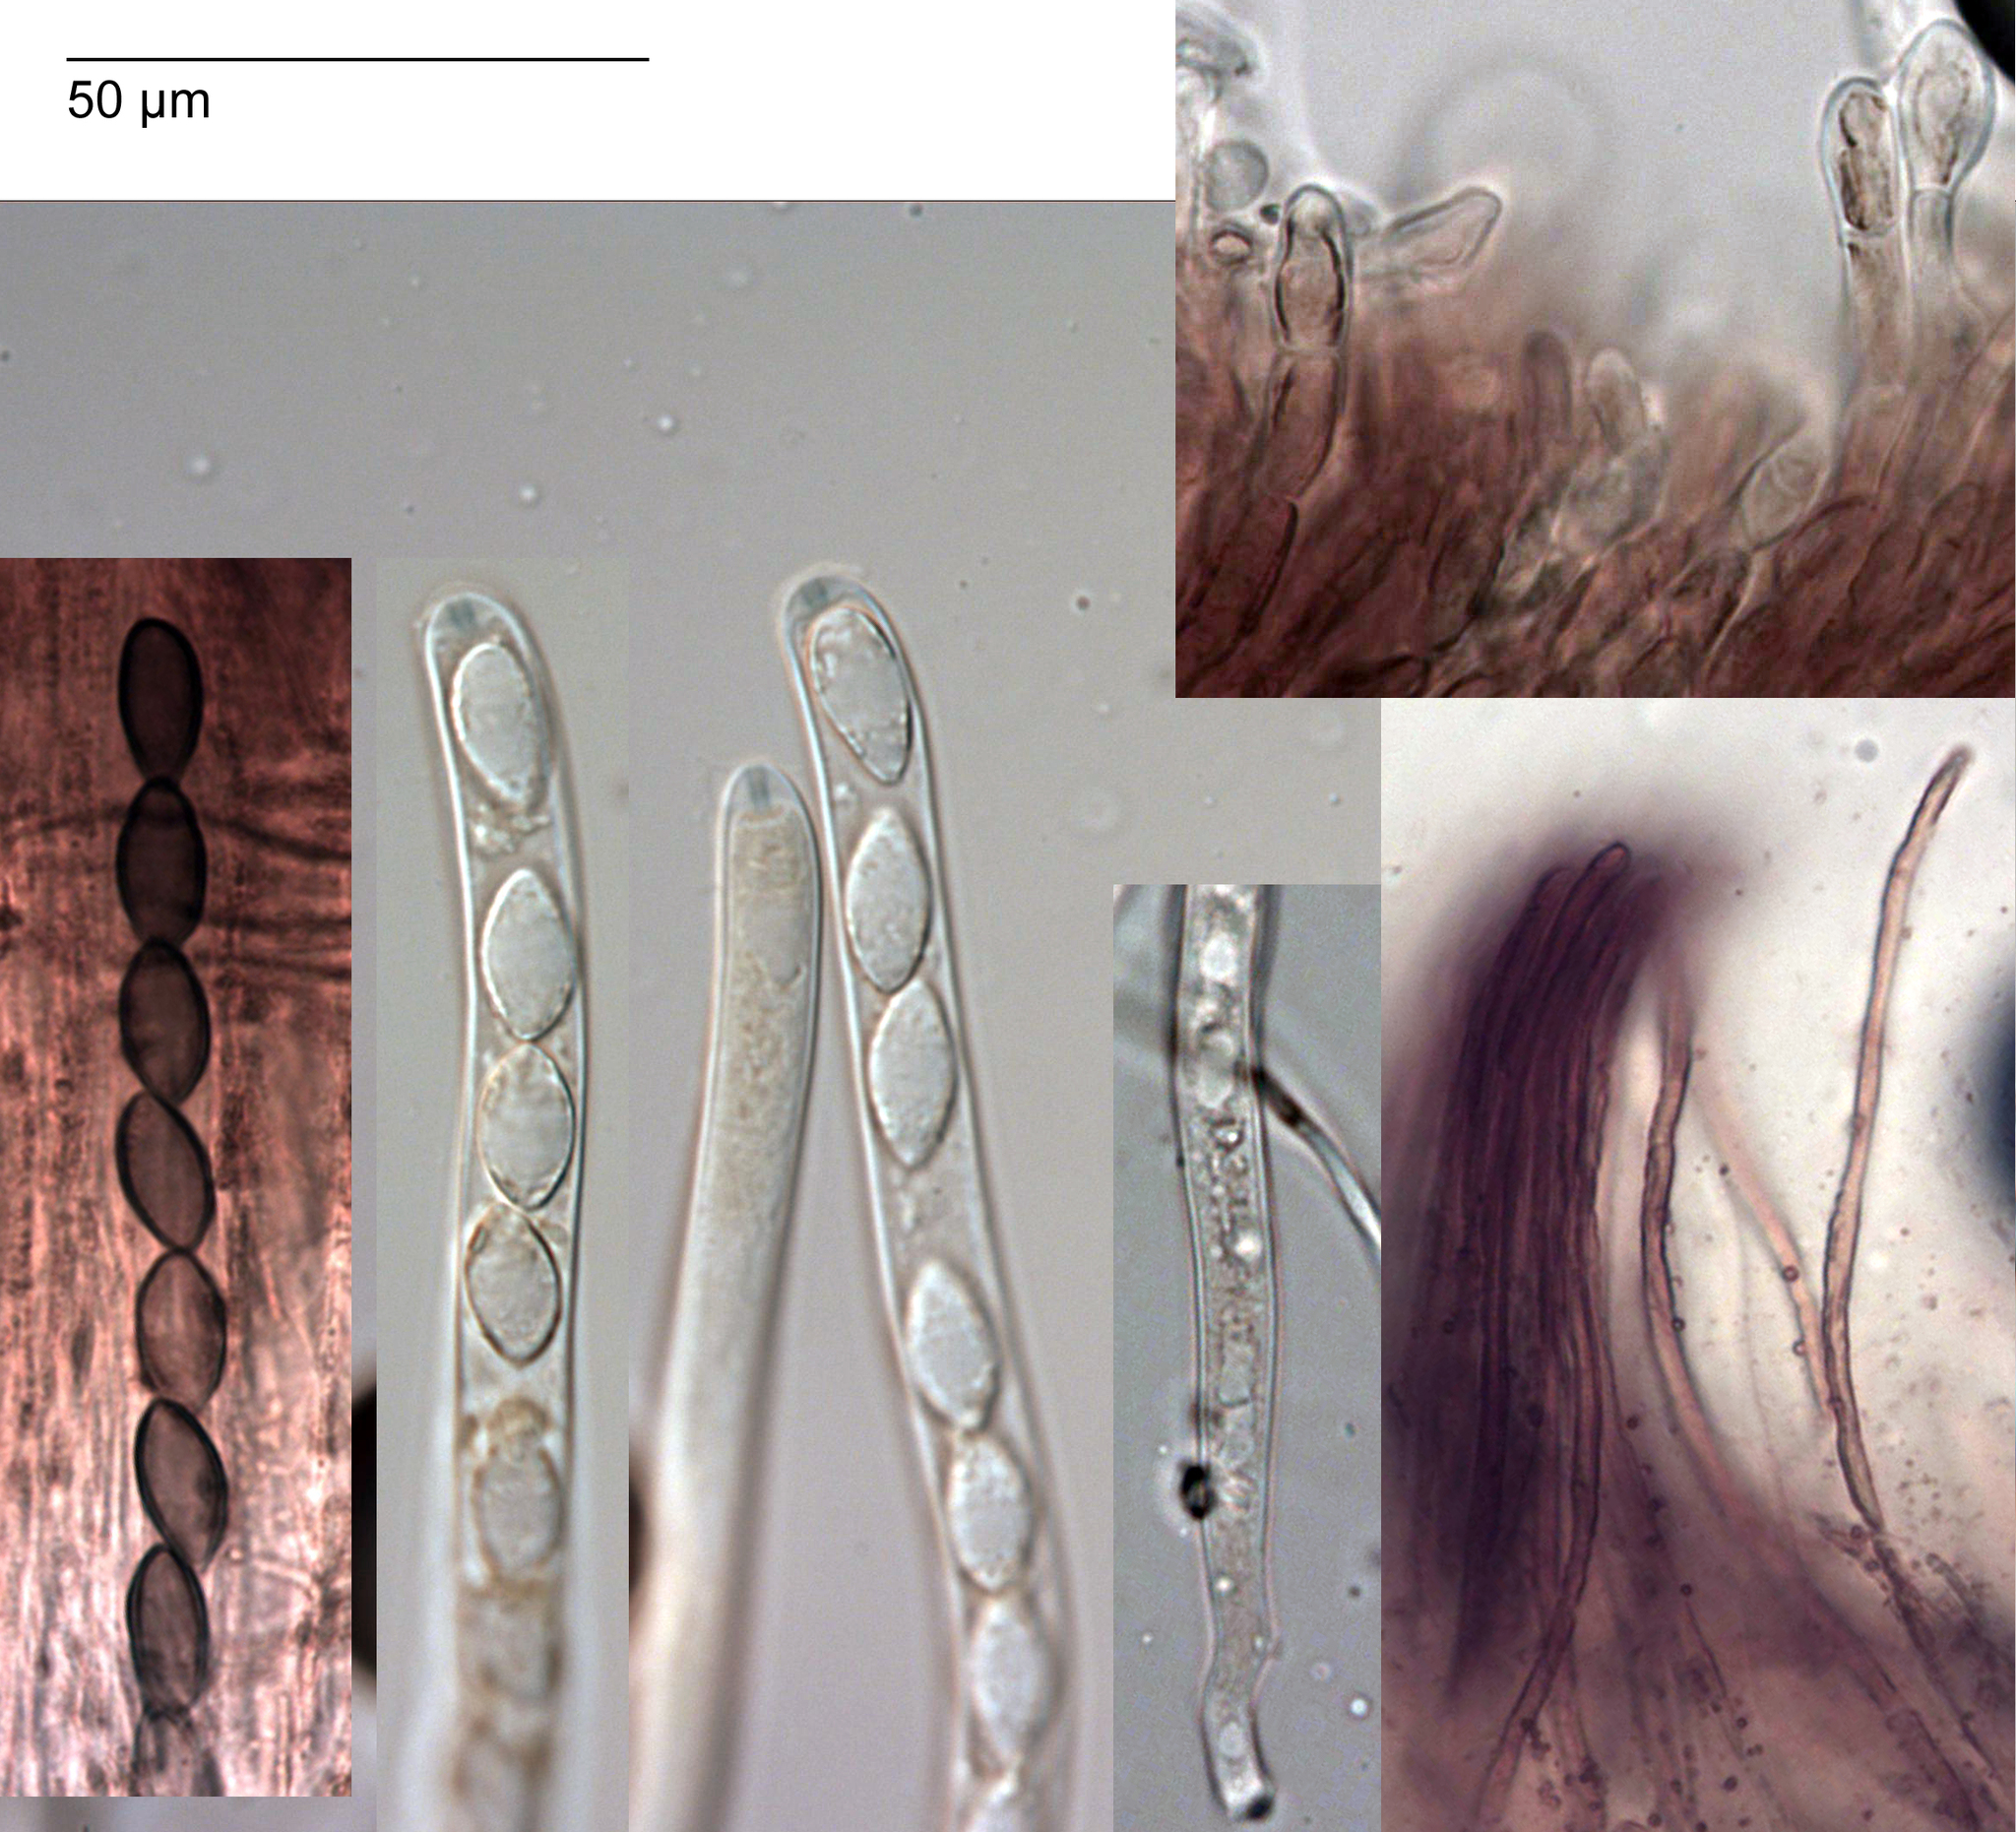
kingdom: Fungi
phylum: Ascomycota
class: Leotiomycetes
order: Helotiales
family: Helotiaceae
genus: Phaeohelotium
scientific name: Phaeohelotium undulatum
